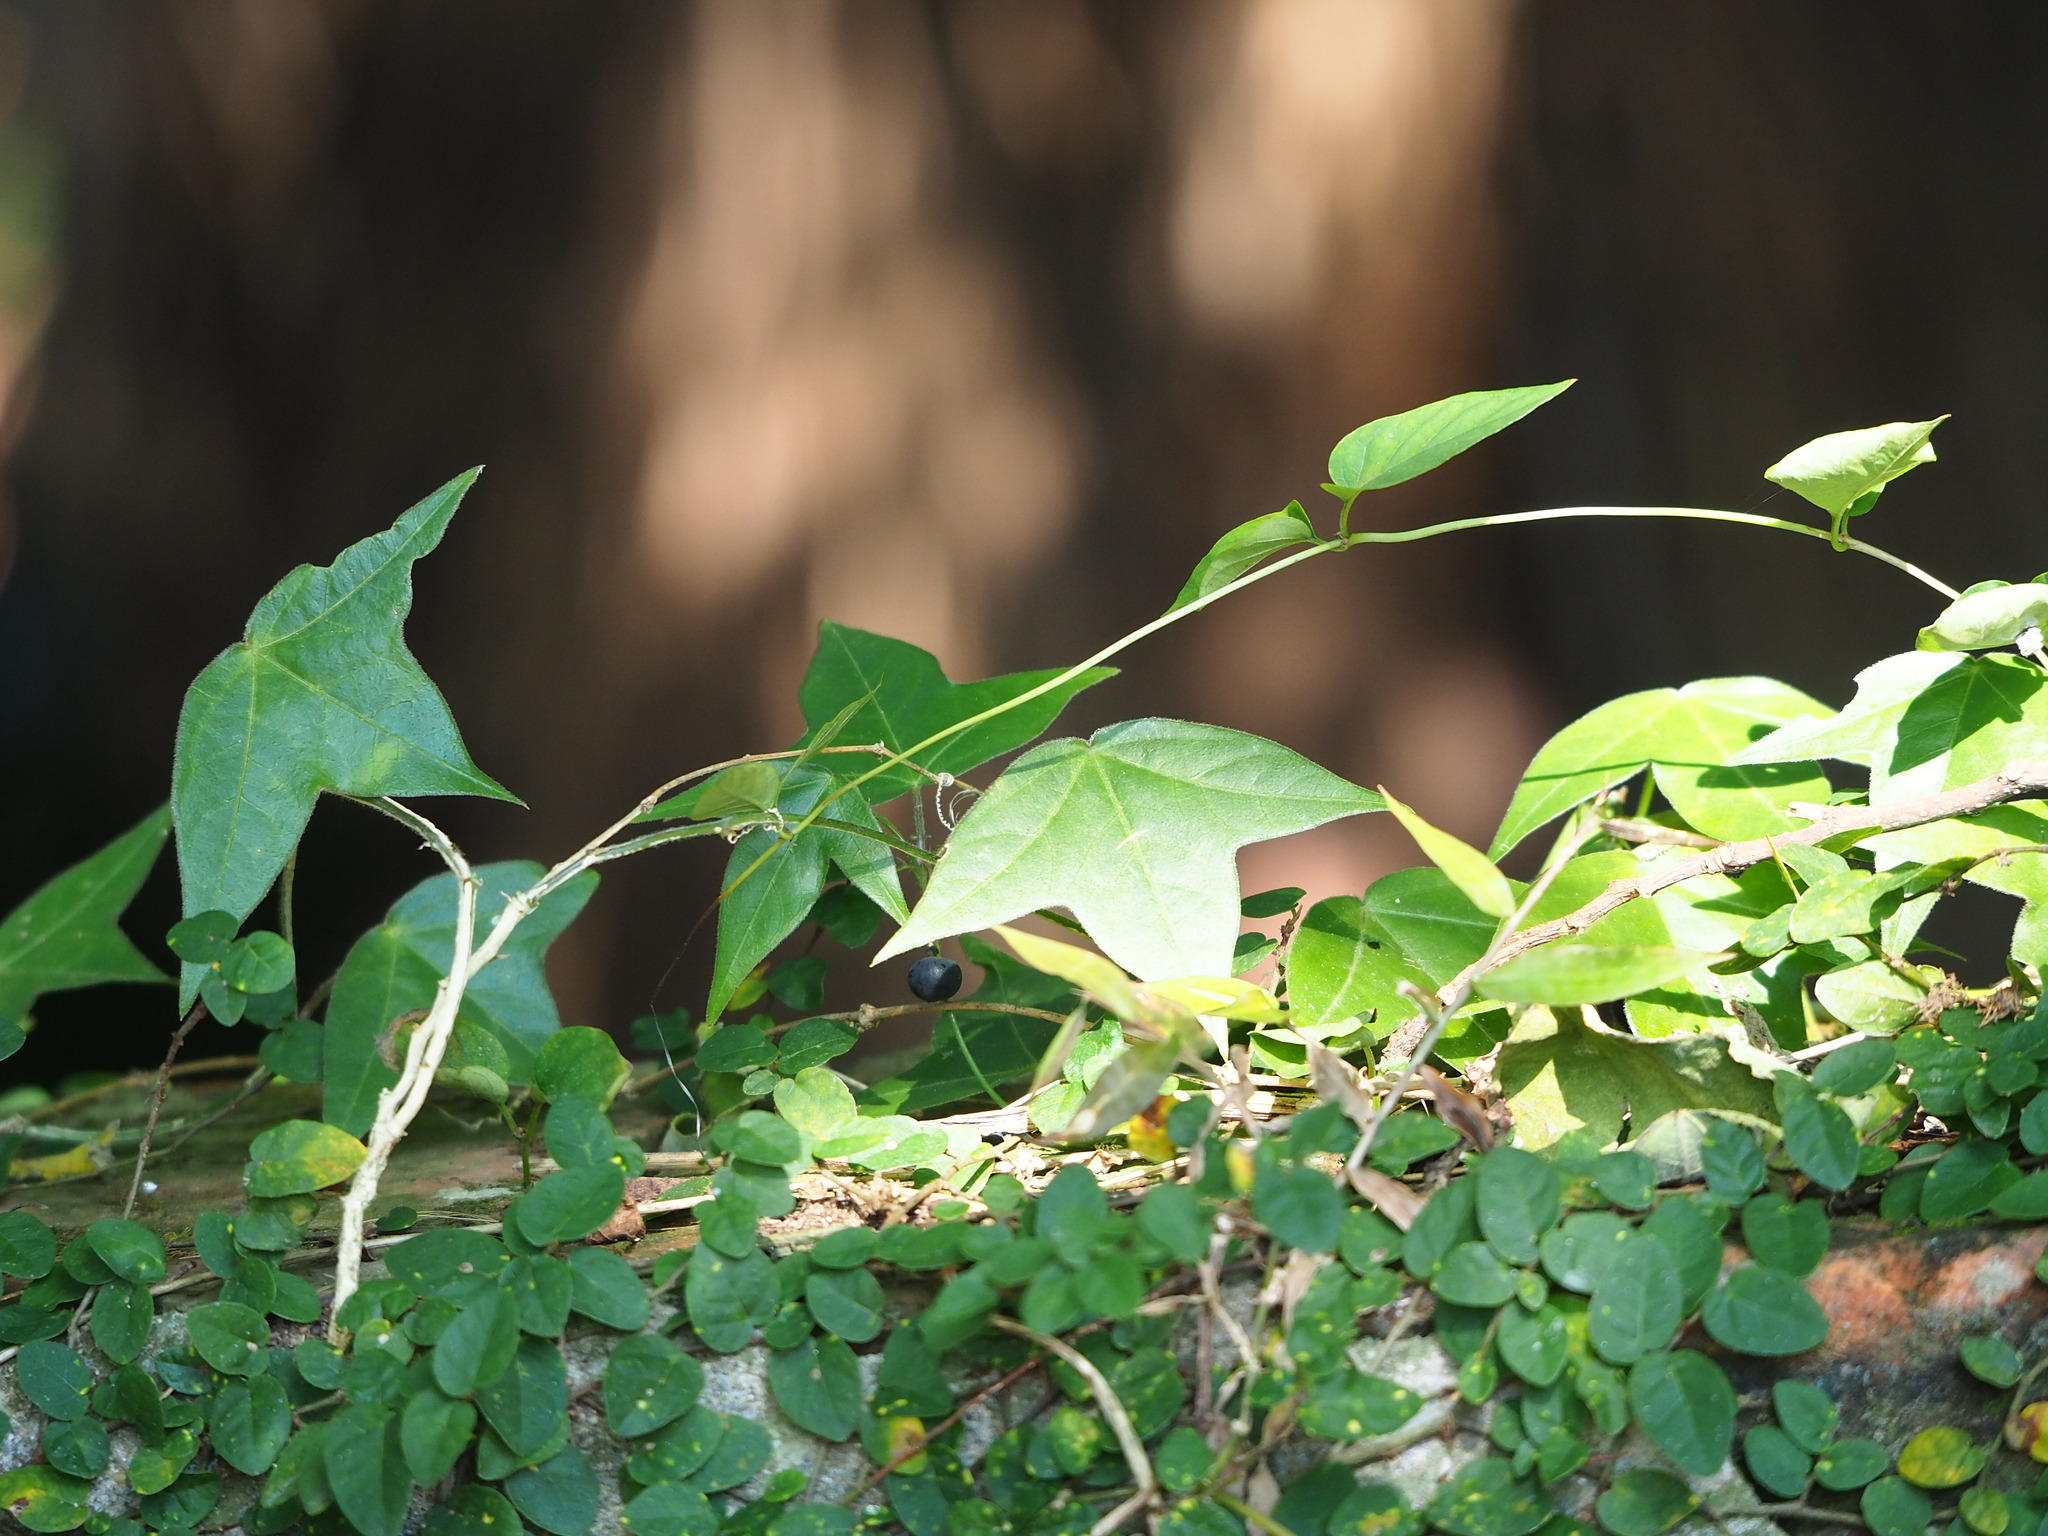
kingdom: Plantae
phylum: Tracheophyta
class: Magnoliopsida
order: Malpighiales
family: Passifloraceae
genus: Passiflora
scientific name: Passiflora suberosa
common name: Wild passionfruit
